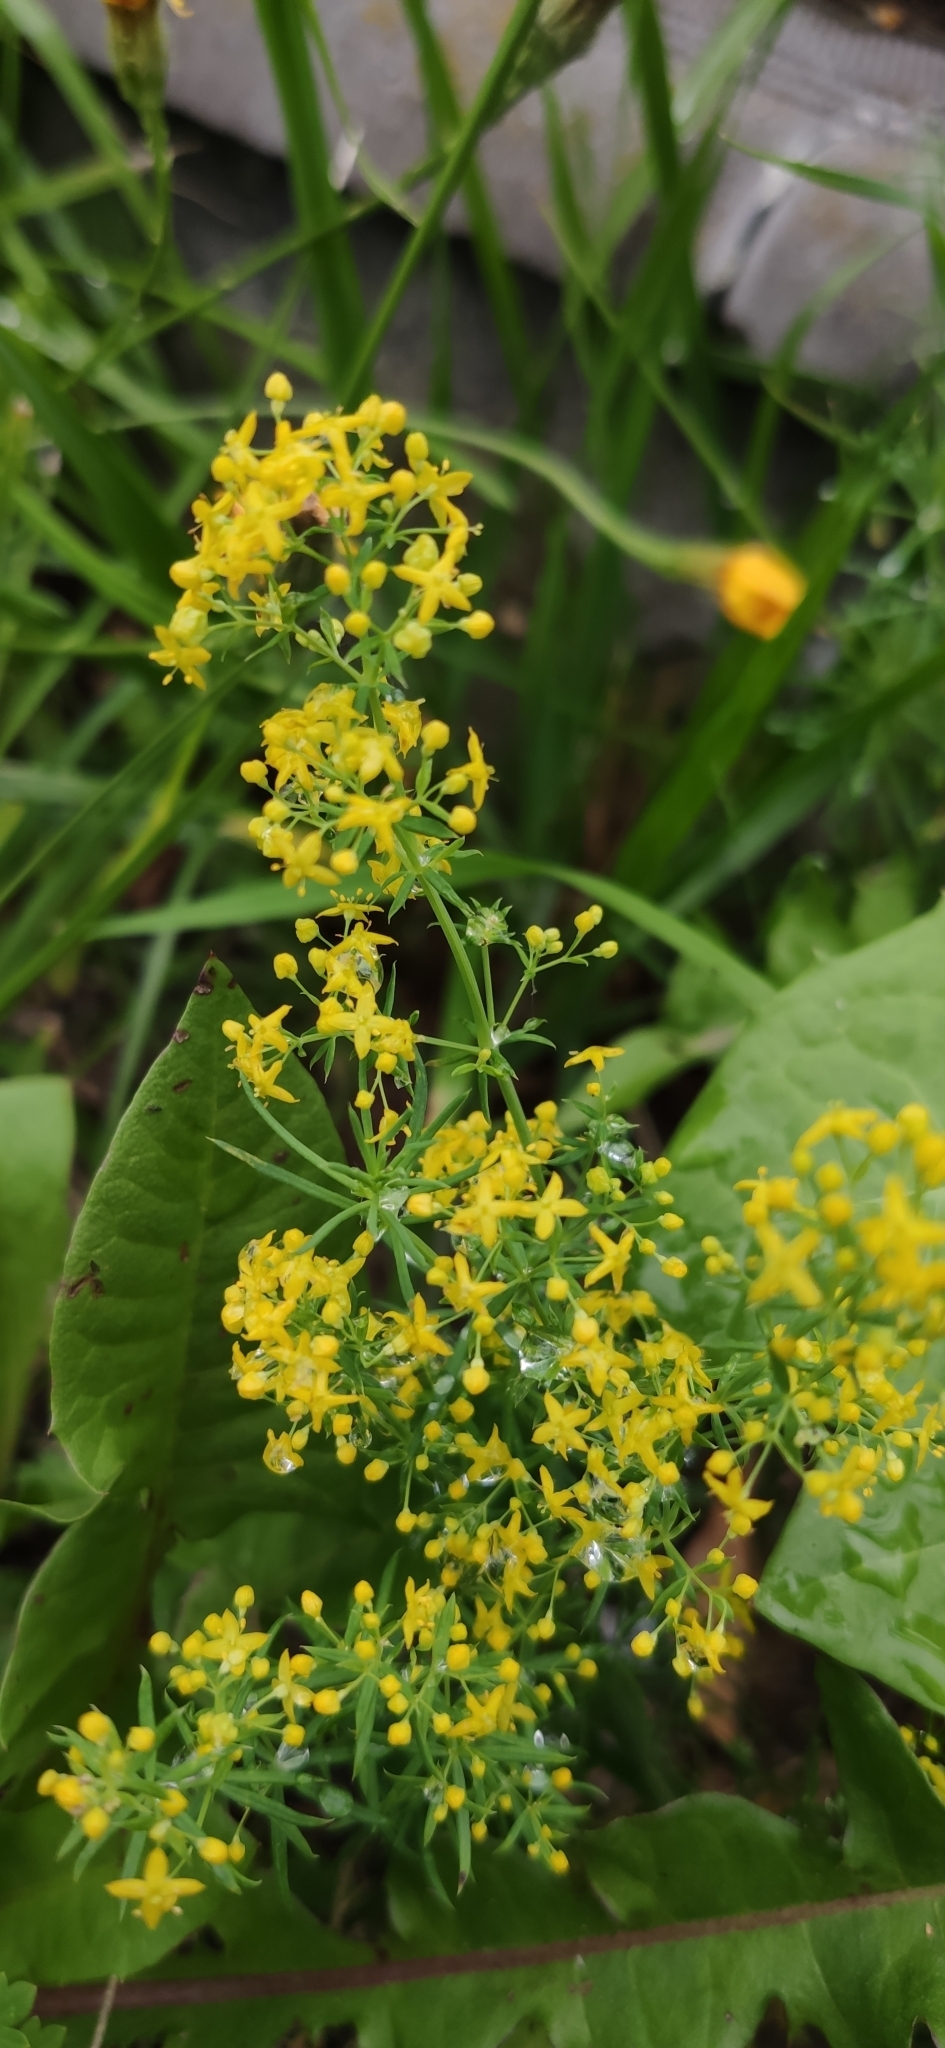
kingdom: Plantae
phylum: Tracheophyta
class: Magnoliopsida
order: Gentianales
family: Rubiaceae
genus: Galium
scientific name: Galium verum
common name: Lady's bedstraw
